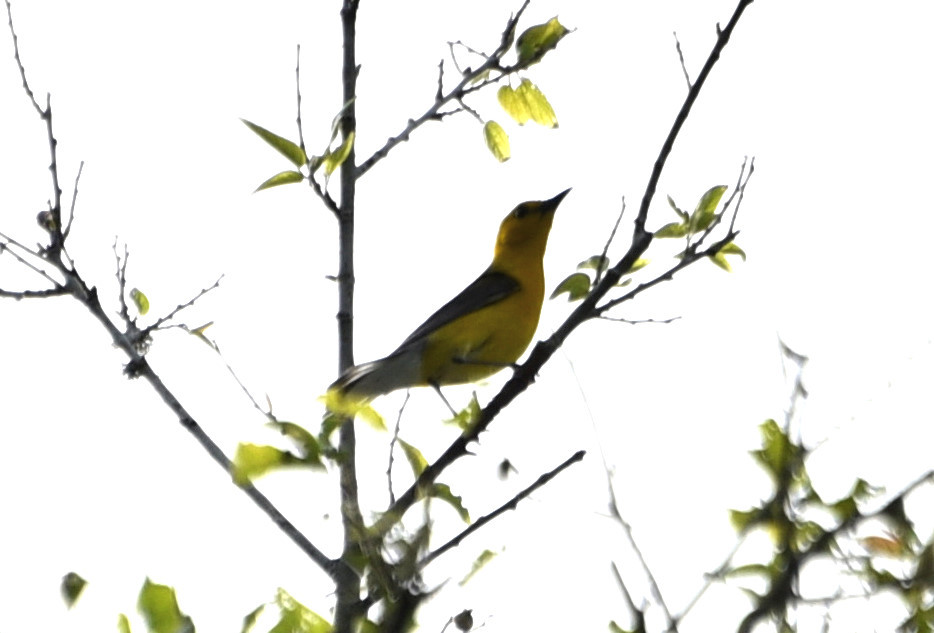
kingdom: Animalia
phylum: Chordata
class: Aves
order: Passeriformes
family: Parulidae
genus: Protonotaria
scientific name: Protonotaria citrea
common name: Prothonotary warbler
